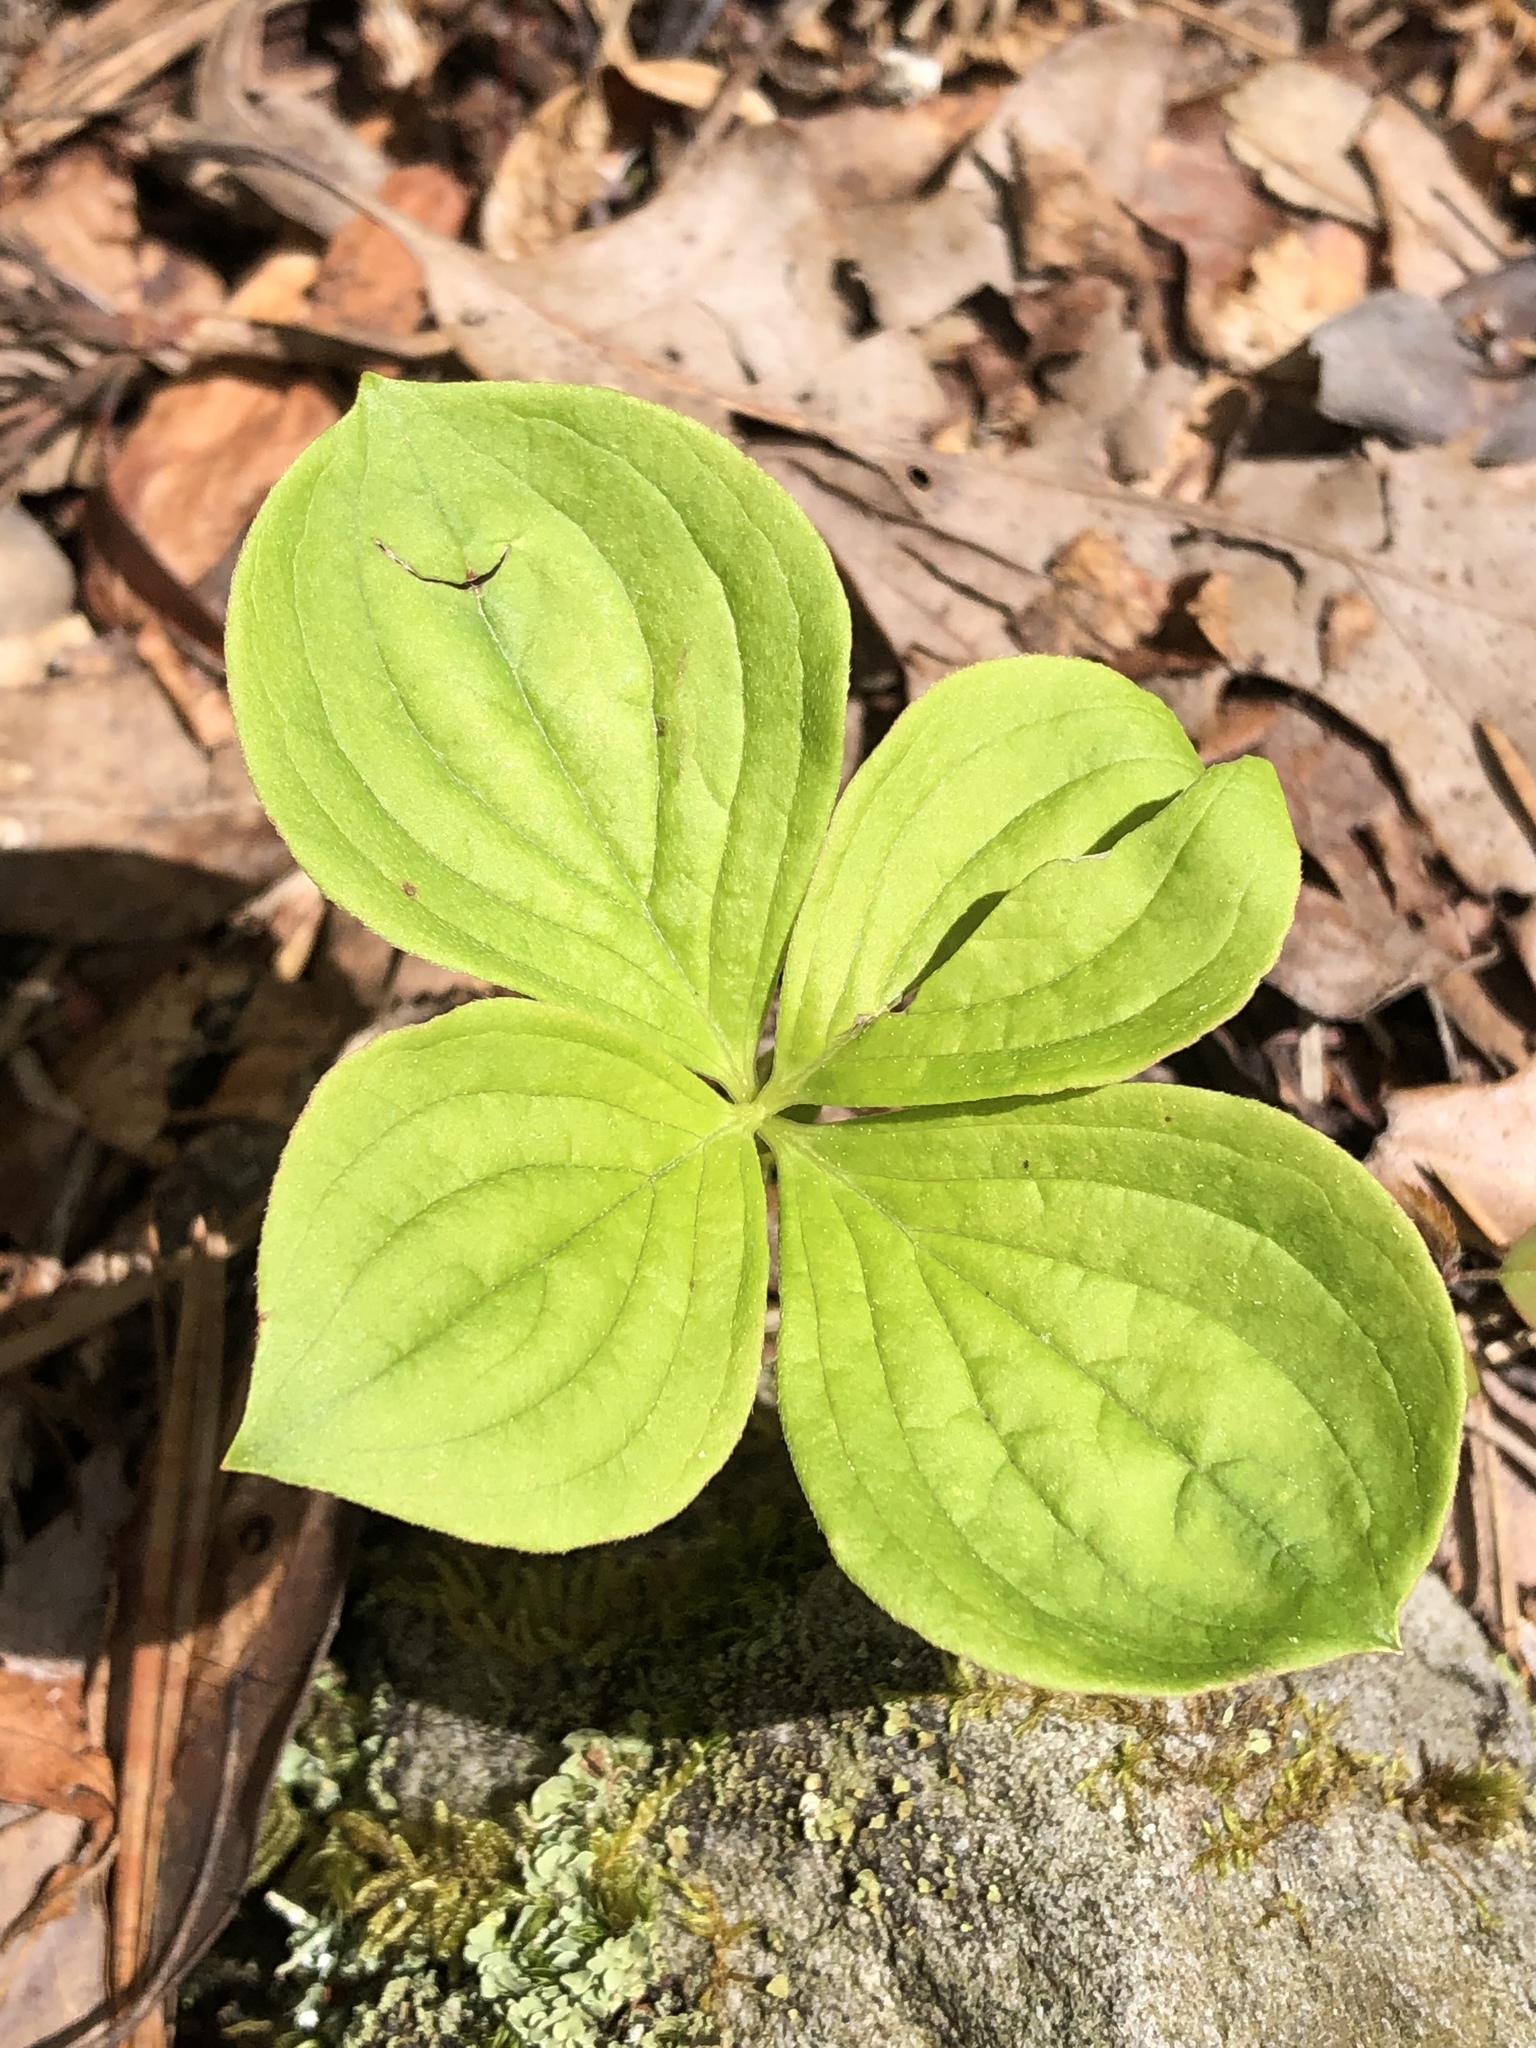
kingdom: Plantae
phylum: Tracheophyta
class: Magnoliopsida
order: Cornales
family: Cornaceae
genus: Cornus
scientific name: Cornus canadensis
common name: Creeping dogwood
